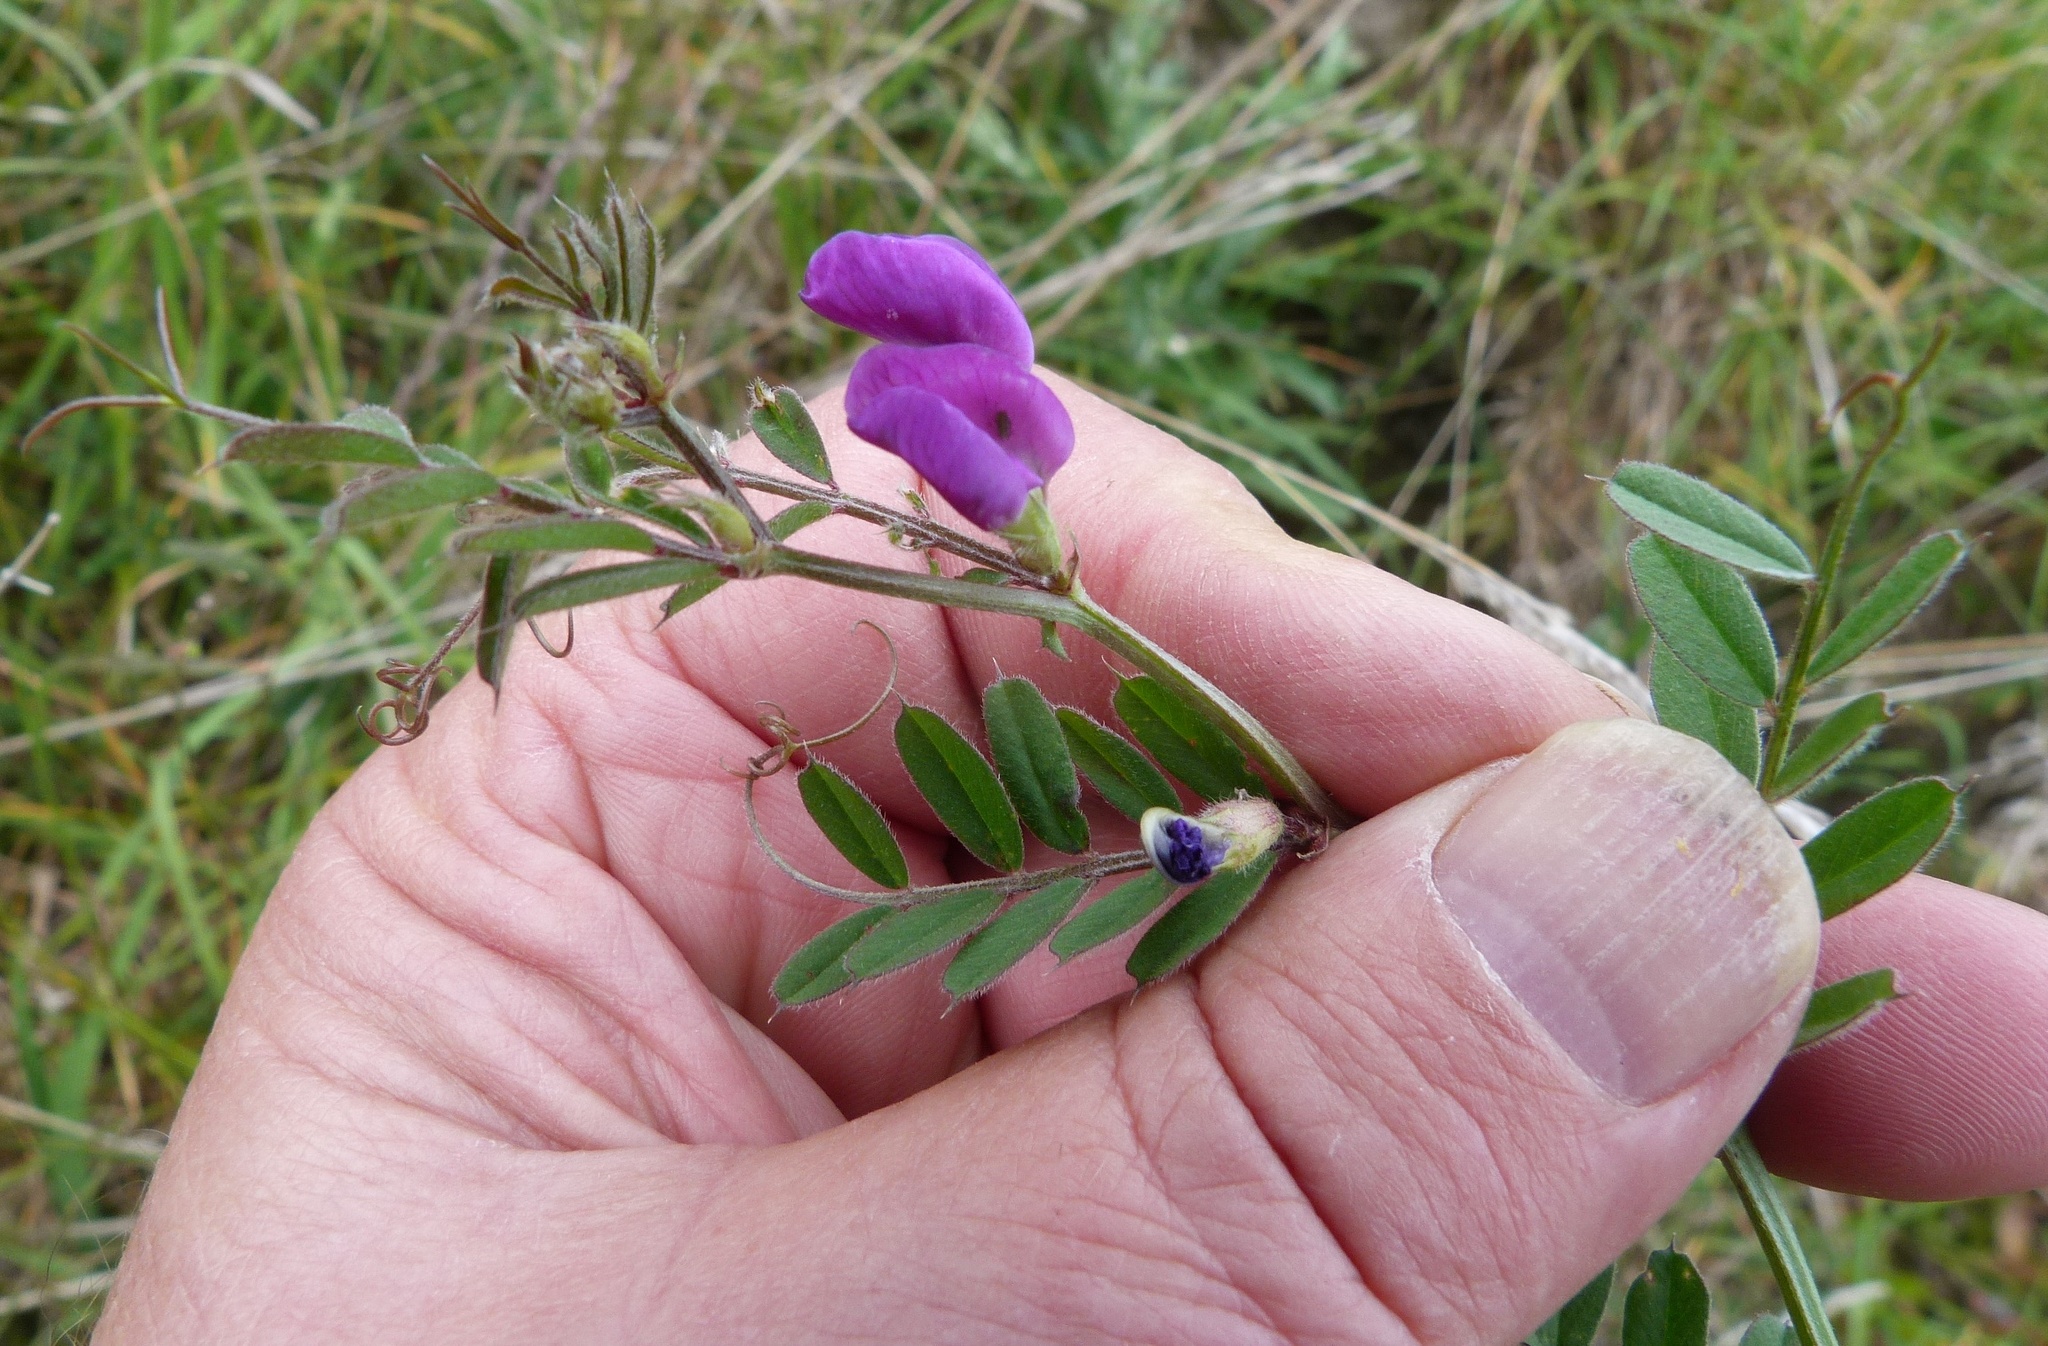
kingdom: Plantae
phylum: Tracheophyta
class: Magnoliopsida
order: Fabales
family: Fabaceae
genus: Vicia
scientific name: Vicia sativa
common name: Garden vetch
